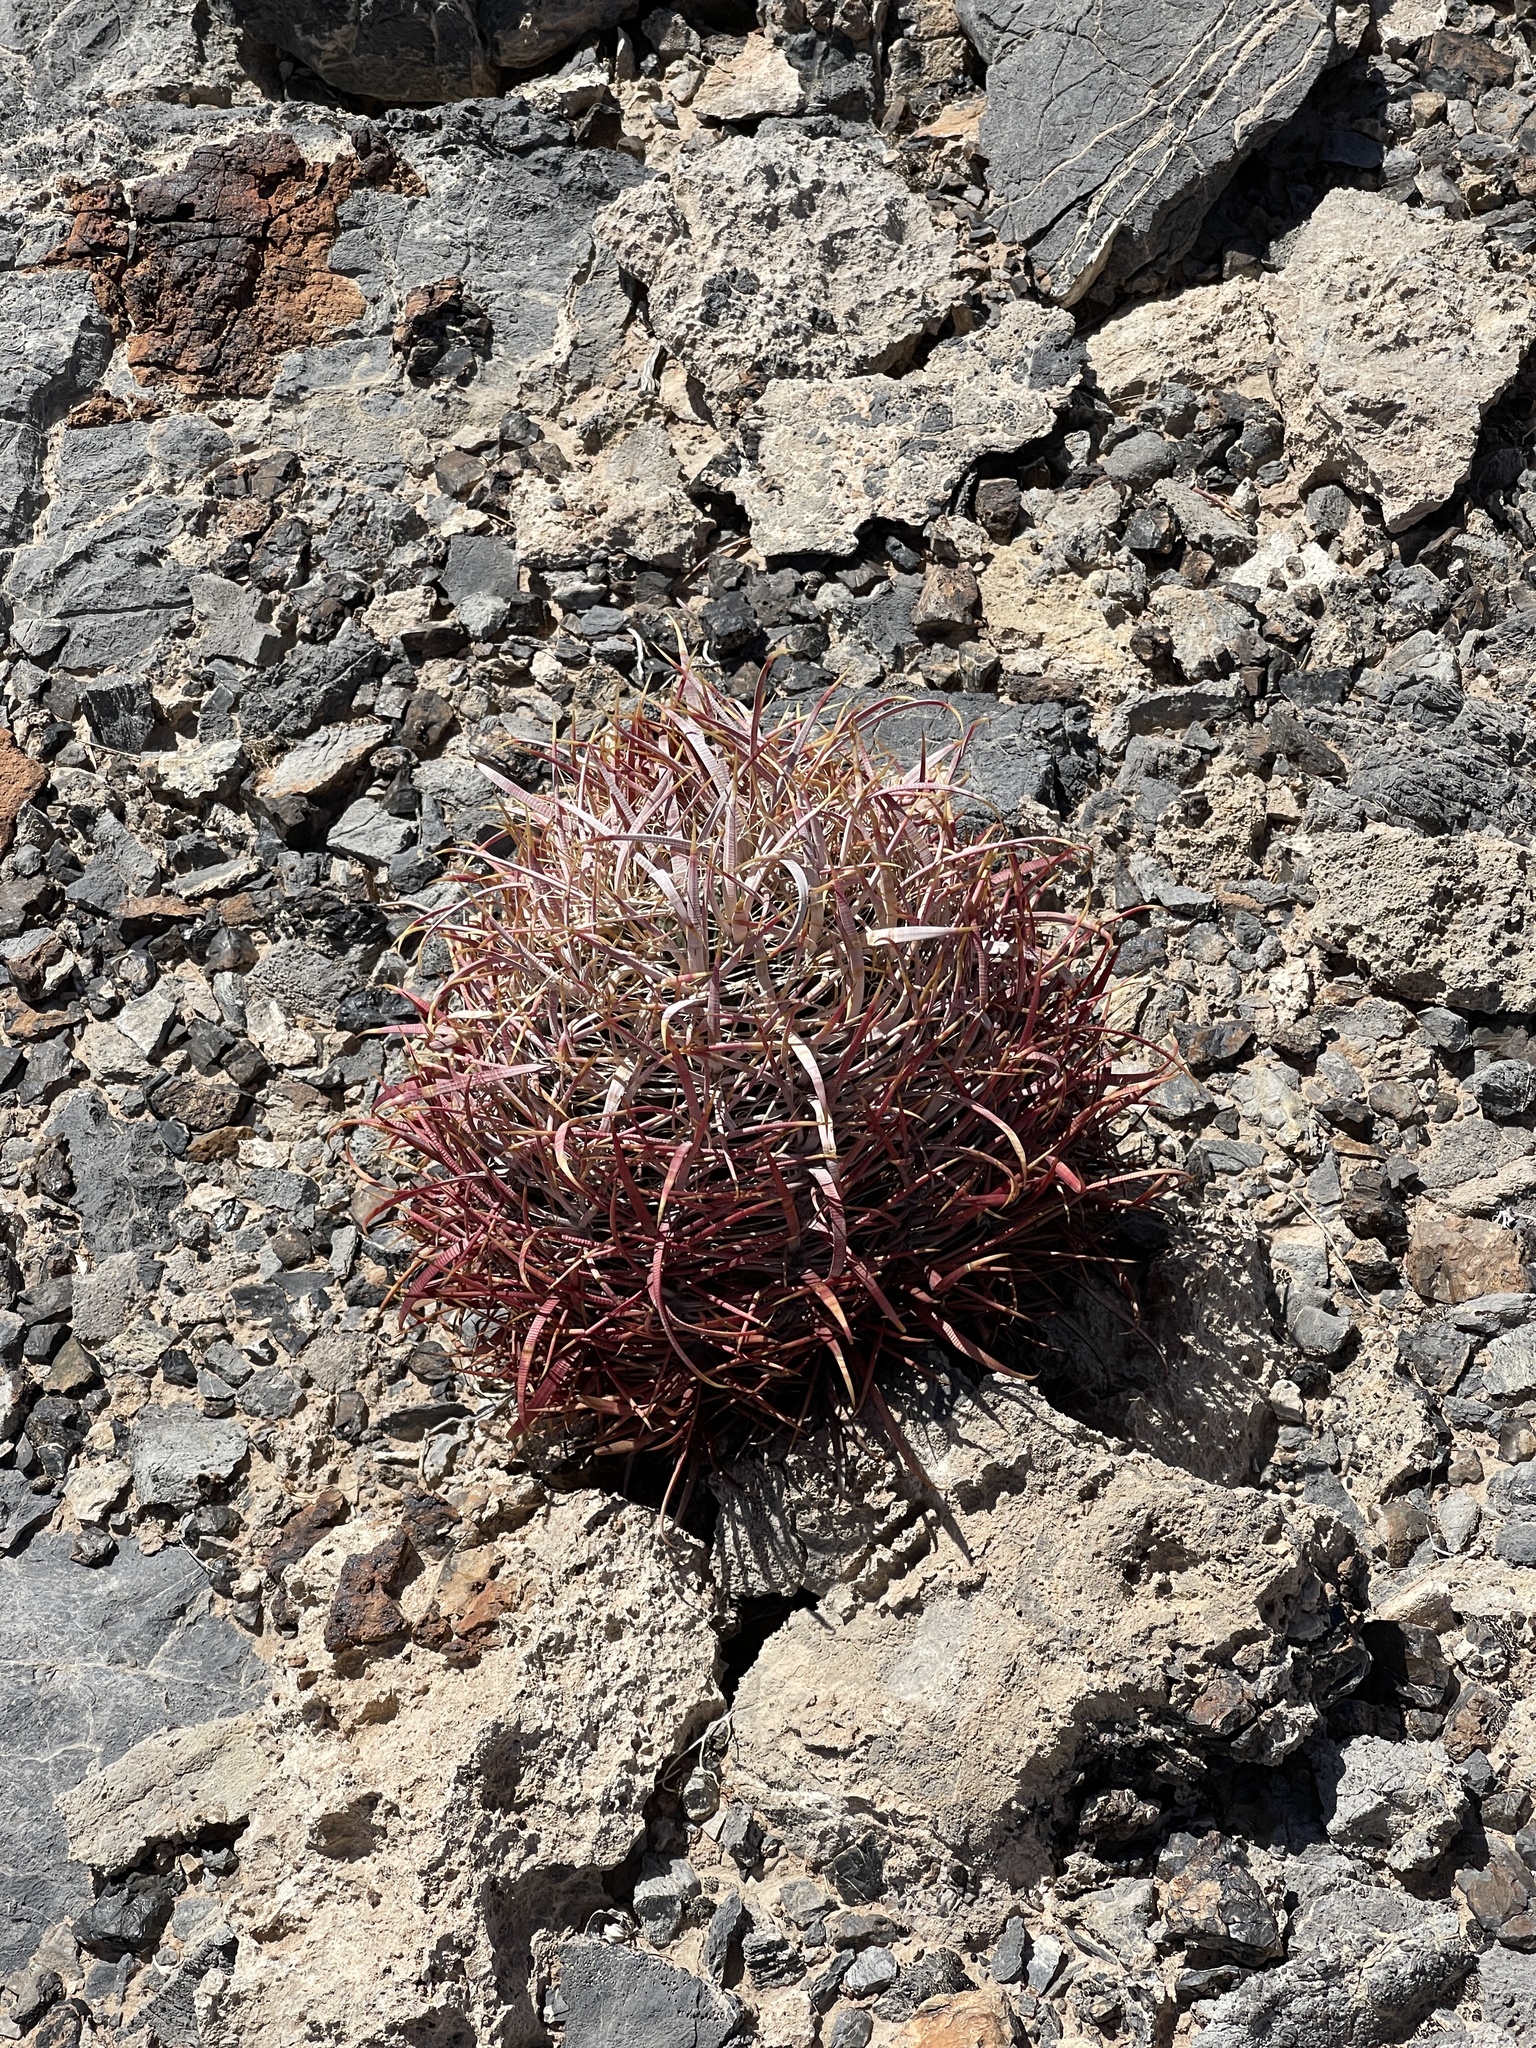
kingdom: Plantae
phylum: Tracheophyta
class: Magnoliopsida
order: Caryophyllales
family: Cactaceae
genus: Ferocactus
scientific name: Ferocactus cylindraceus
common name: California barrel cactus
